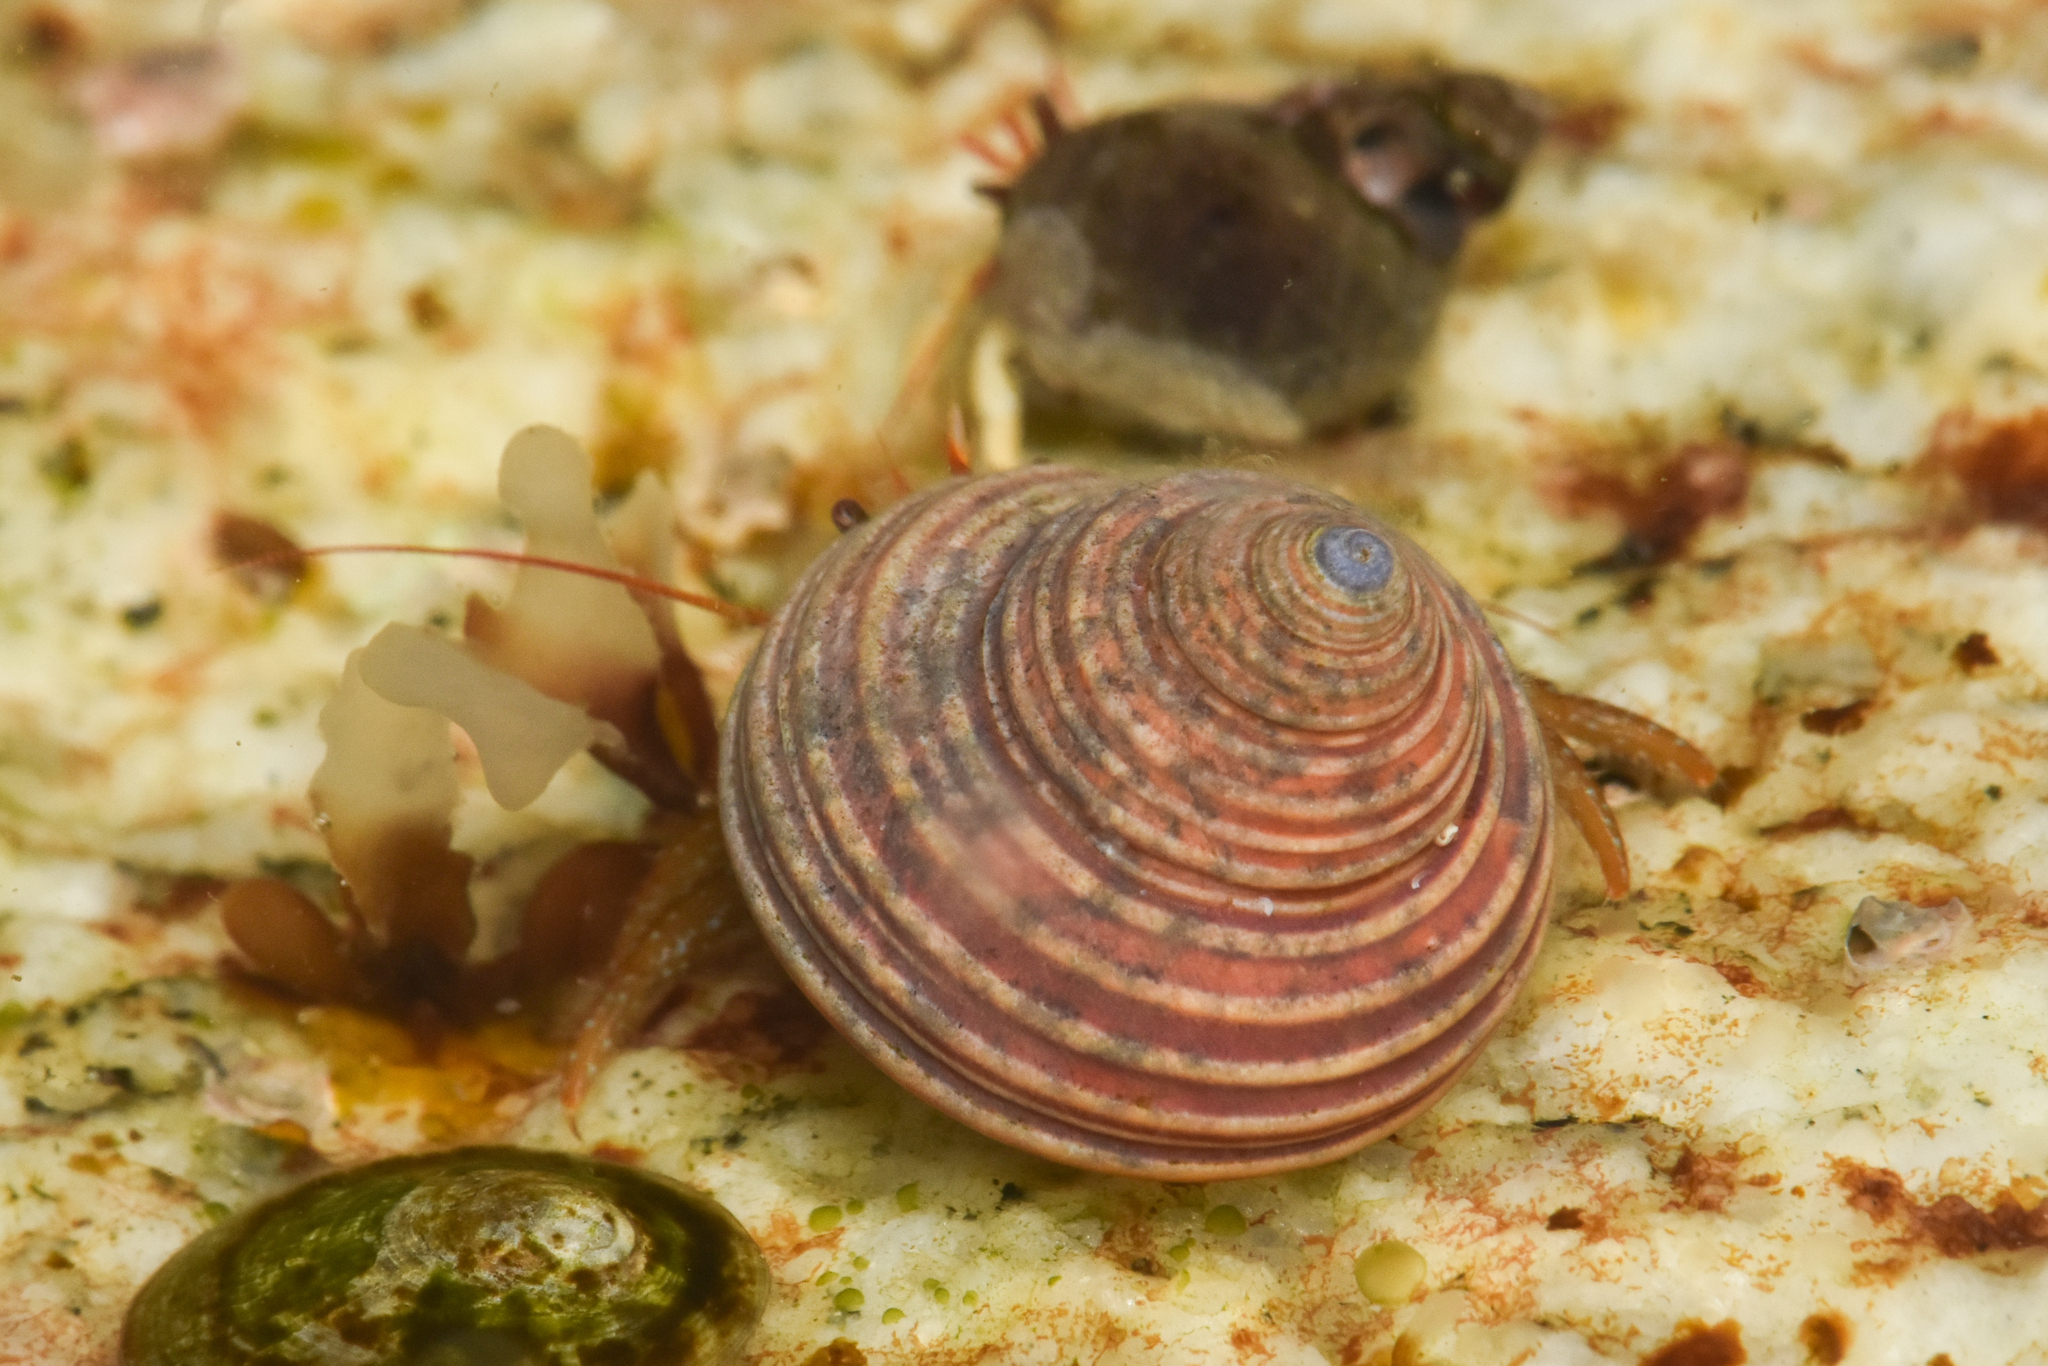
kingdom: Animalia
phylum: Mollusca
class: Gastropoda
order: Trochida
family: Calliostomatidae
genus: Calliostoma
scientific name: Calliostoma ligatum
